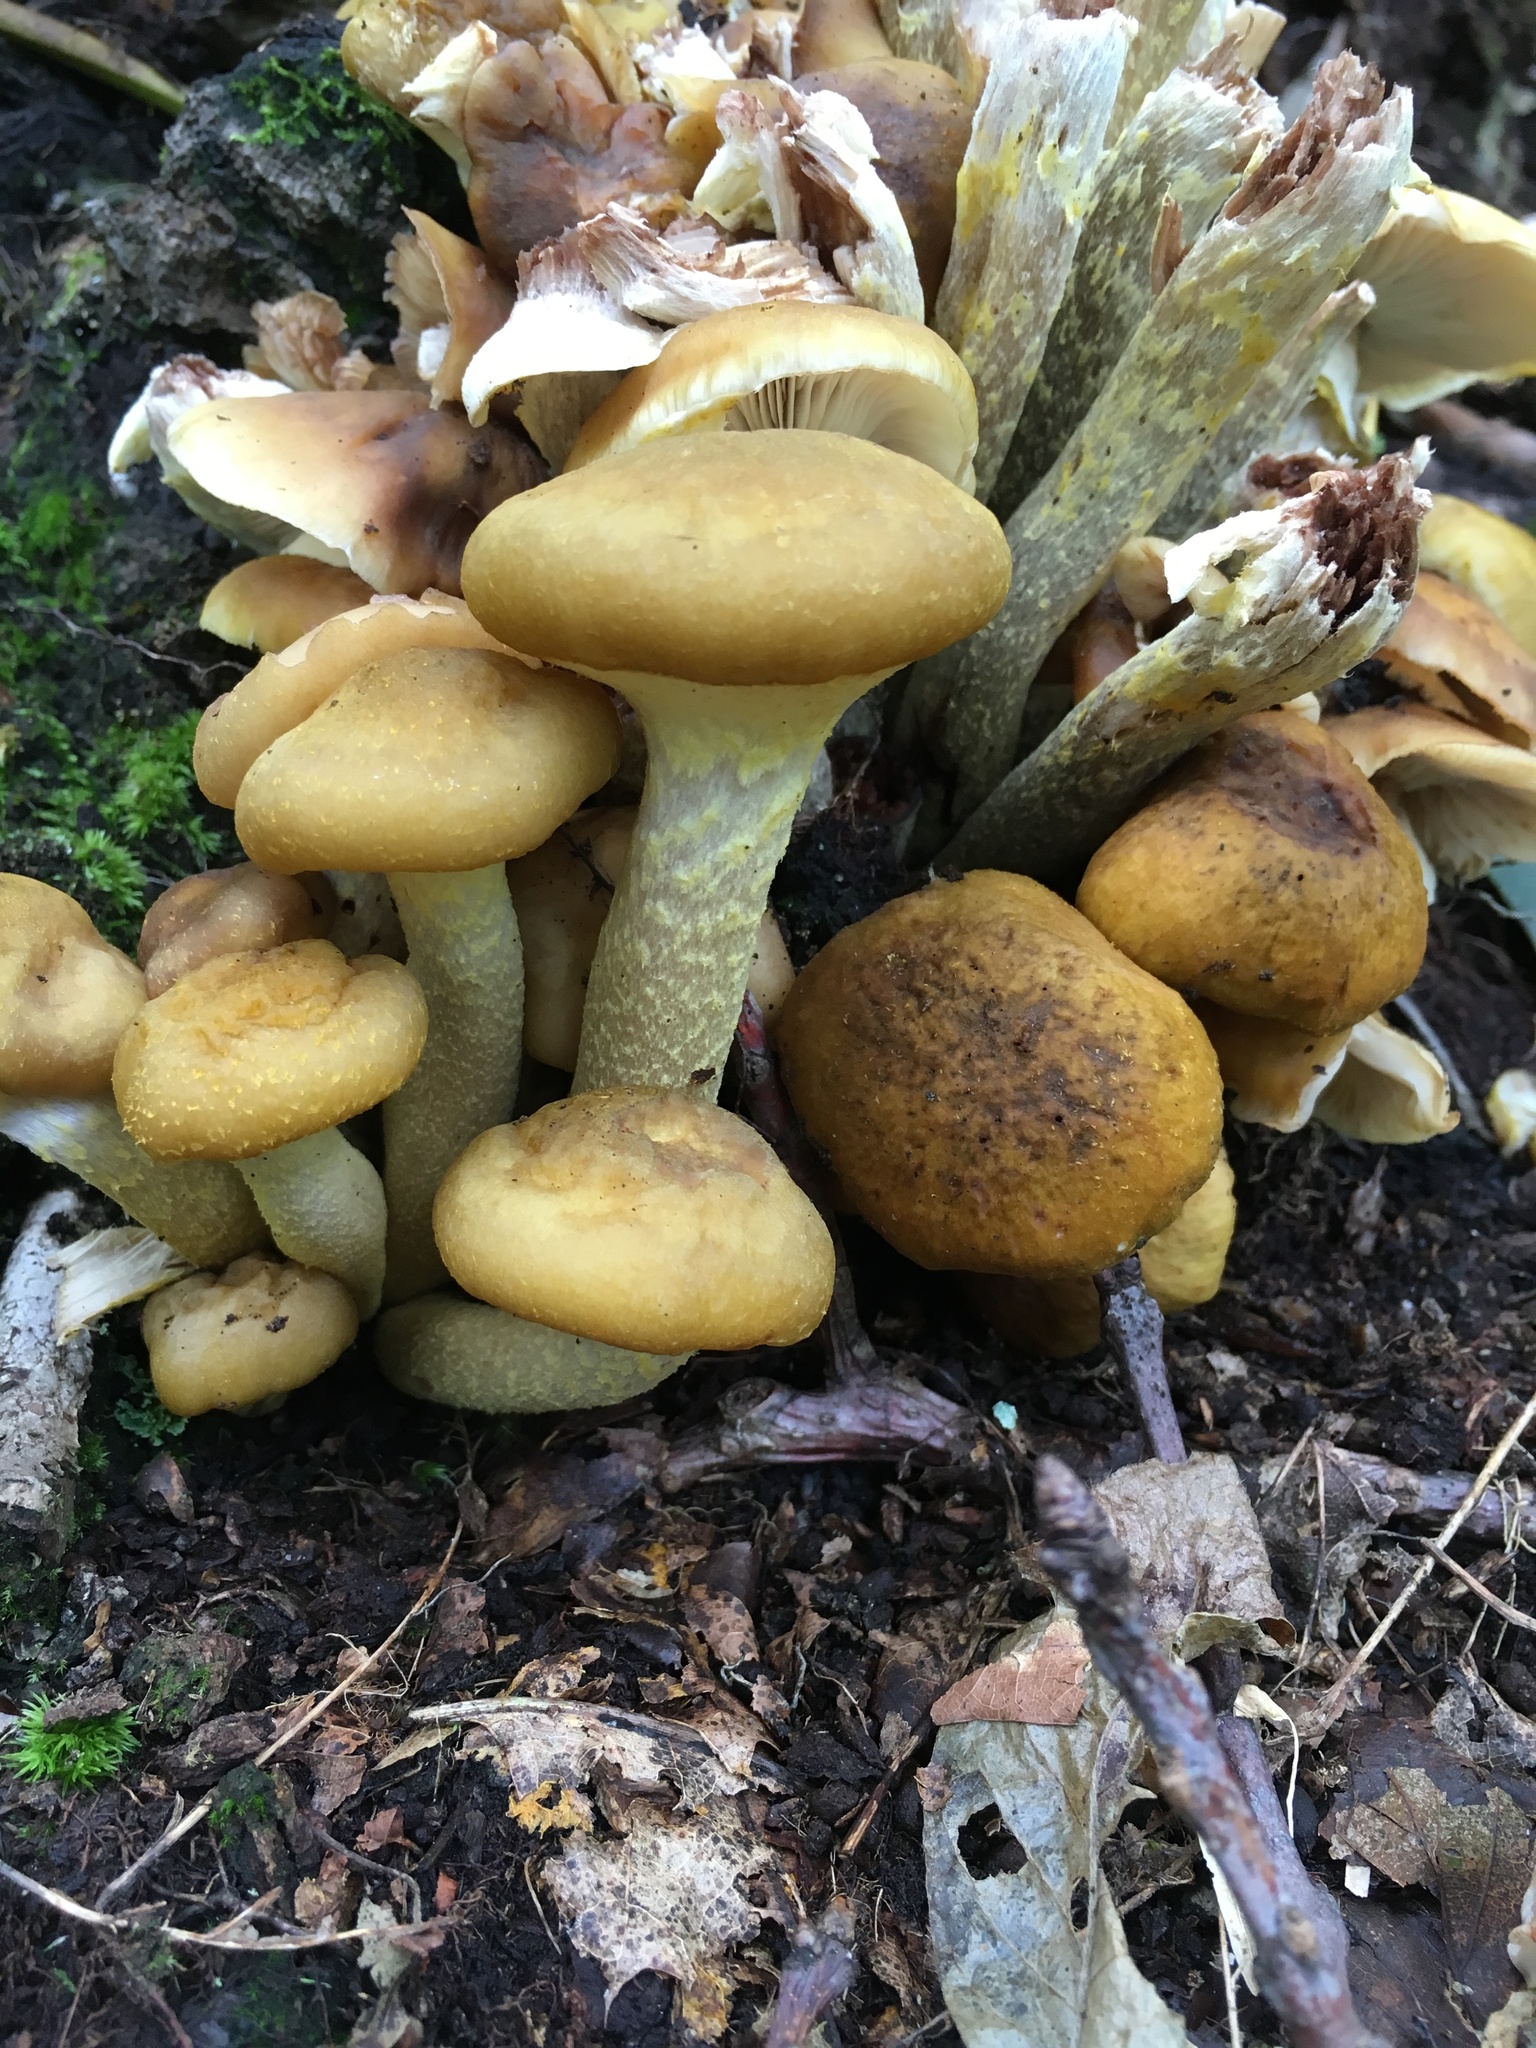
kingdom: Fungi
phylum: Basidiomycota
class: Agaricomycetes
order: Agaricales
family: Physalacriaceae
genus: Armillaria
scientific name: Armillaria mellea
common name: Honey fungus
